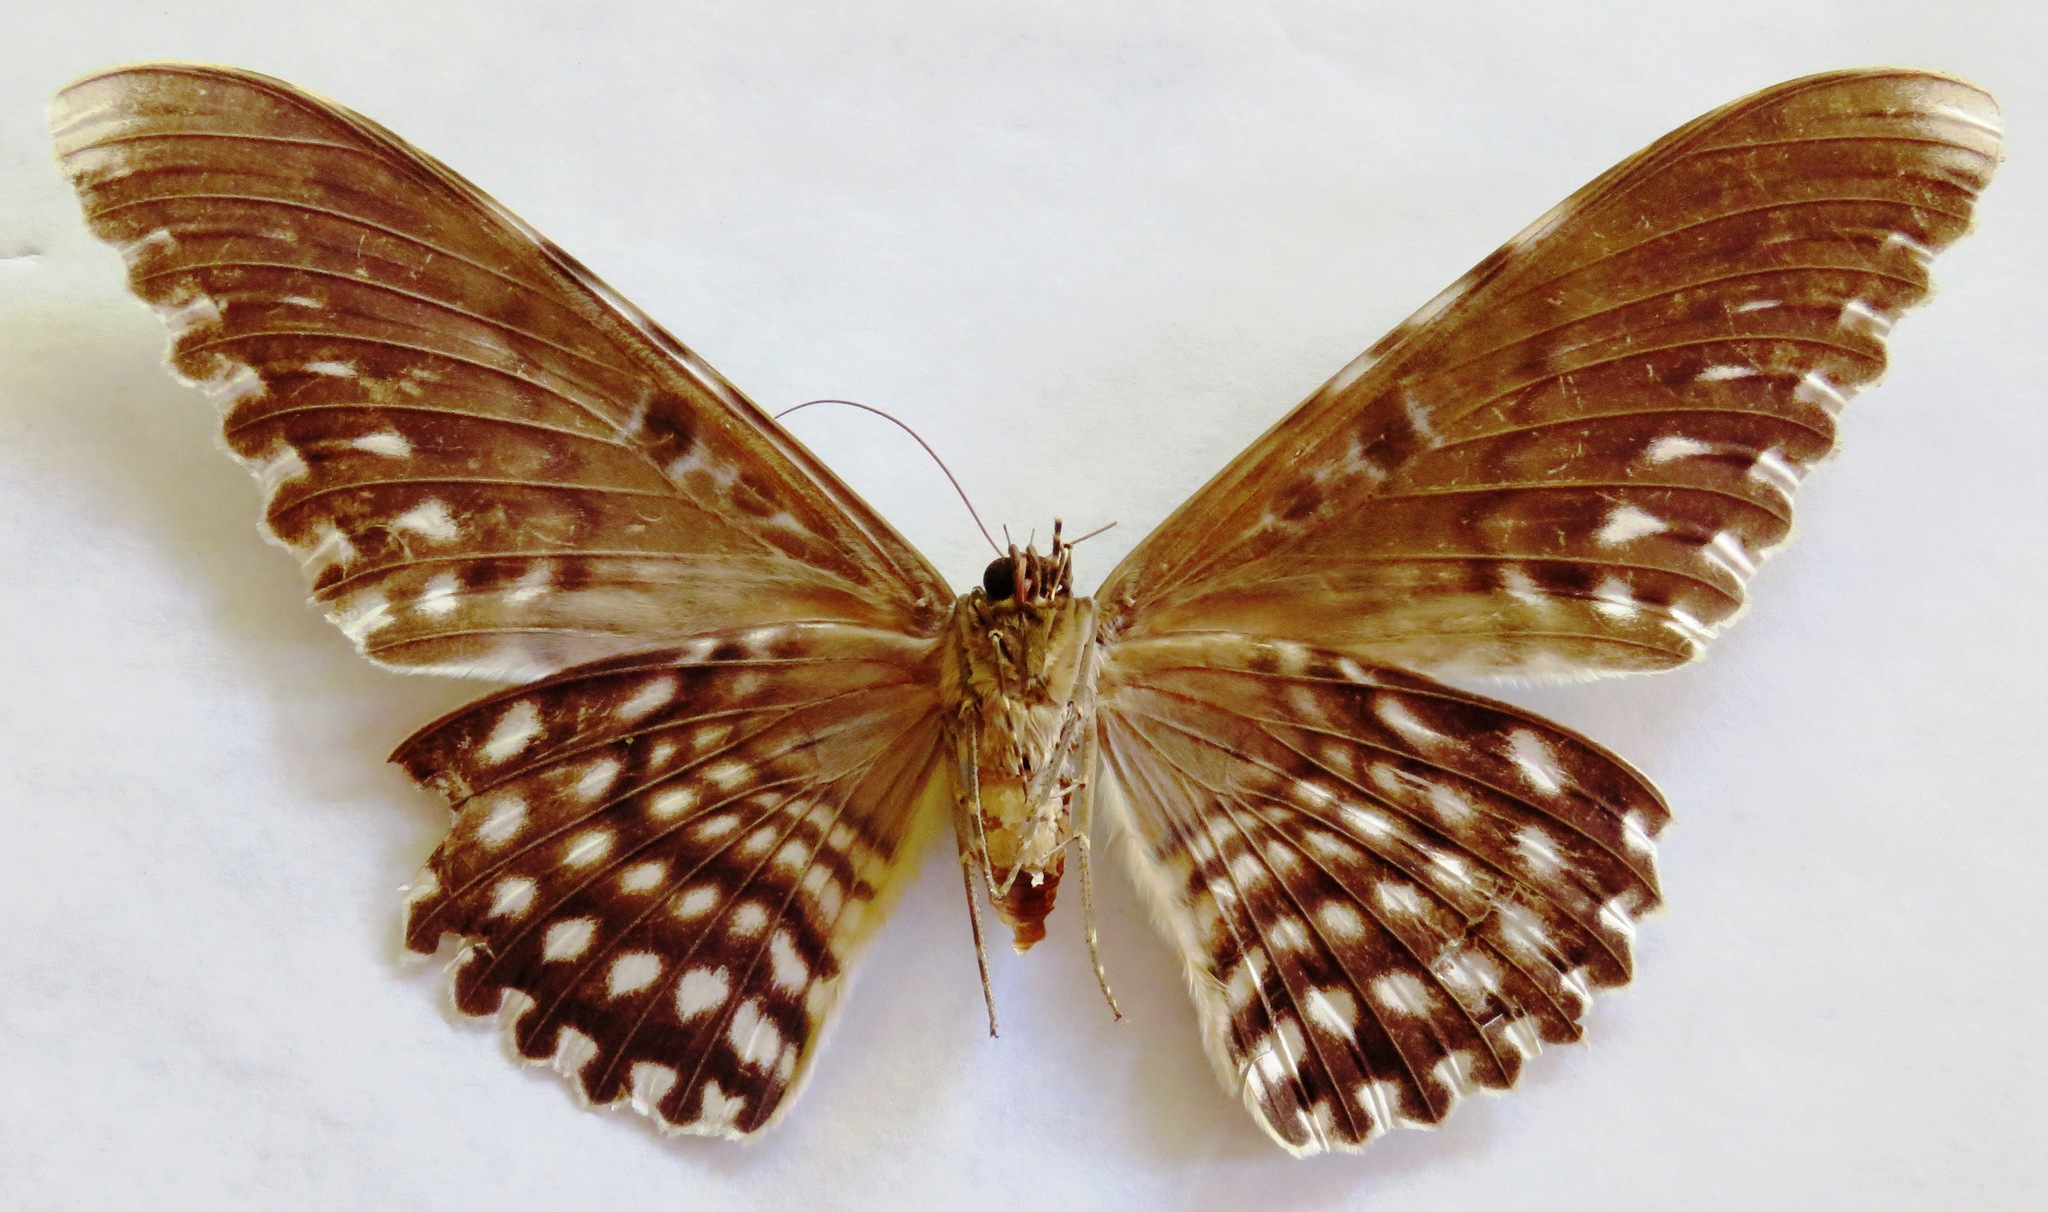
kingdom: Animalia
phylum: Arthropoda
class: Insecta
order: Lepidoptera
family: Erebidae
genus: Thysania
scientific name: Thysania agrippina
